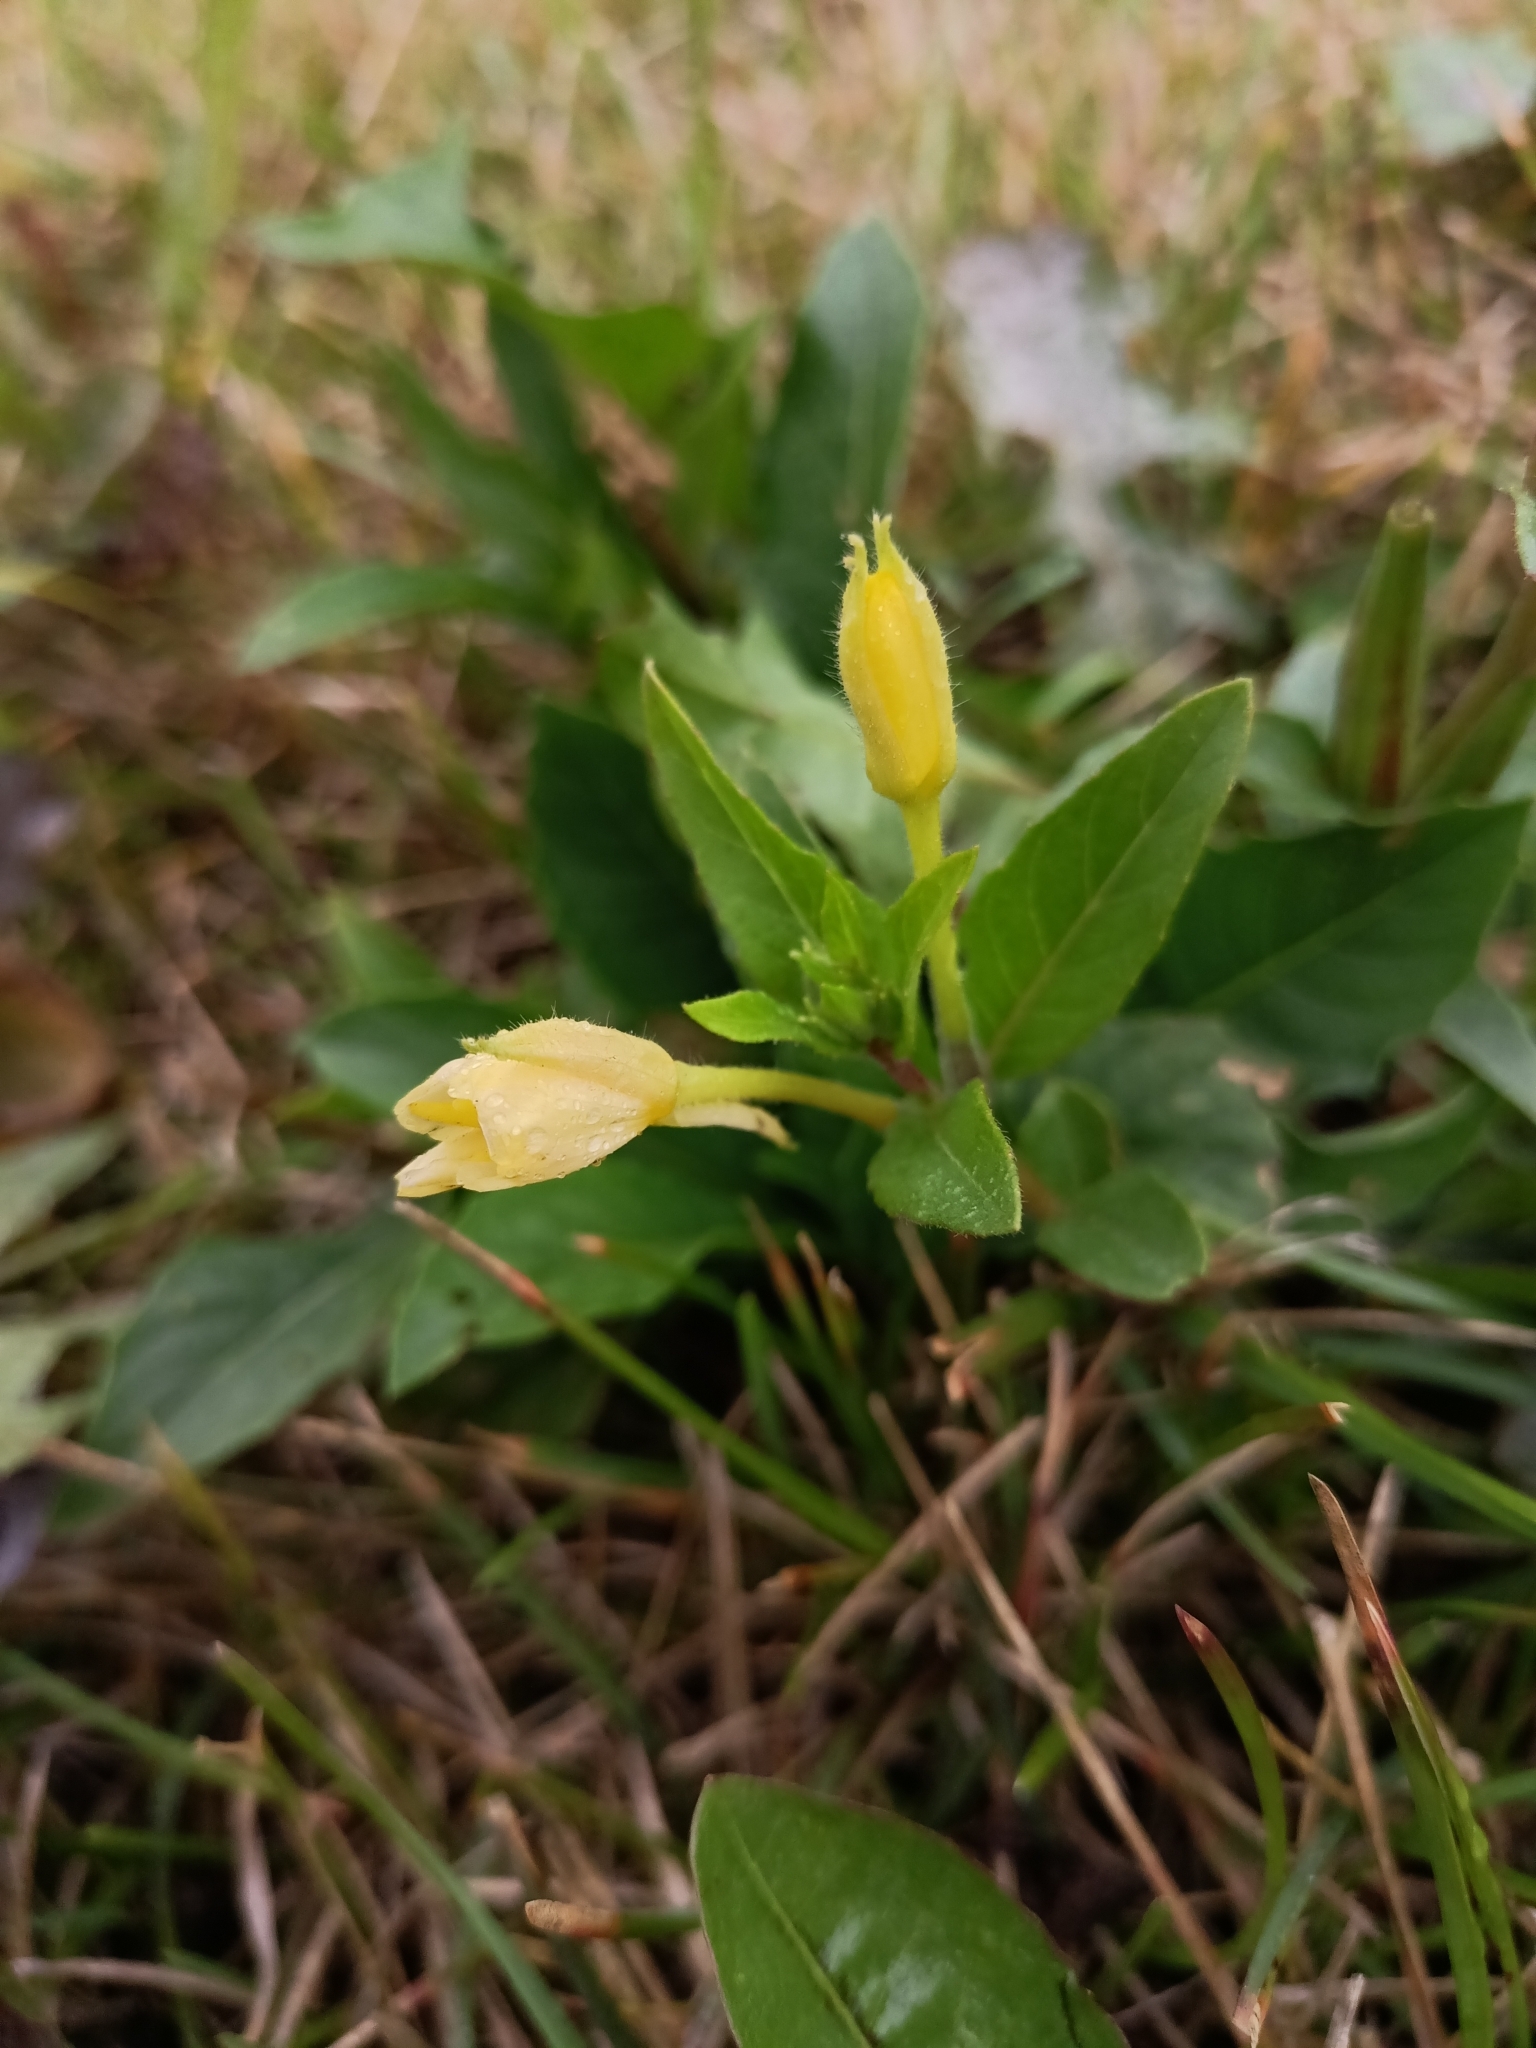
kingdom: Plantae
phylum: Tracheophyta
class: Magnoliopsida
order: Myrtales
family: Onagraceae
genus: Oenothera
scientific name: Oenothera rubricaulis
